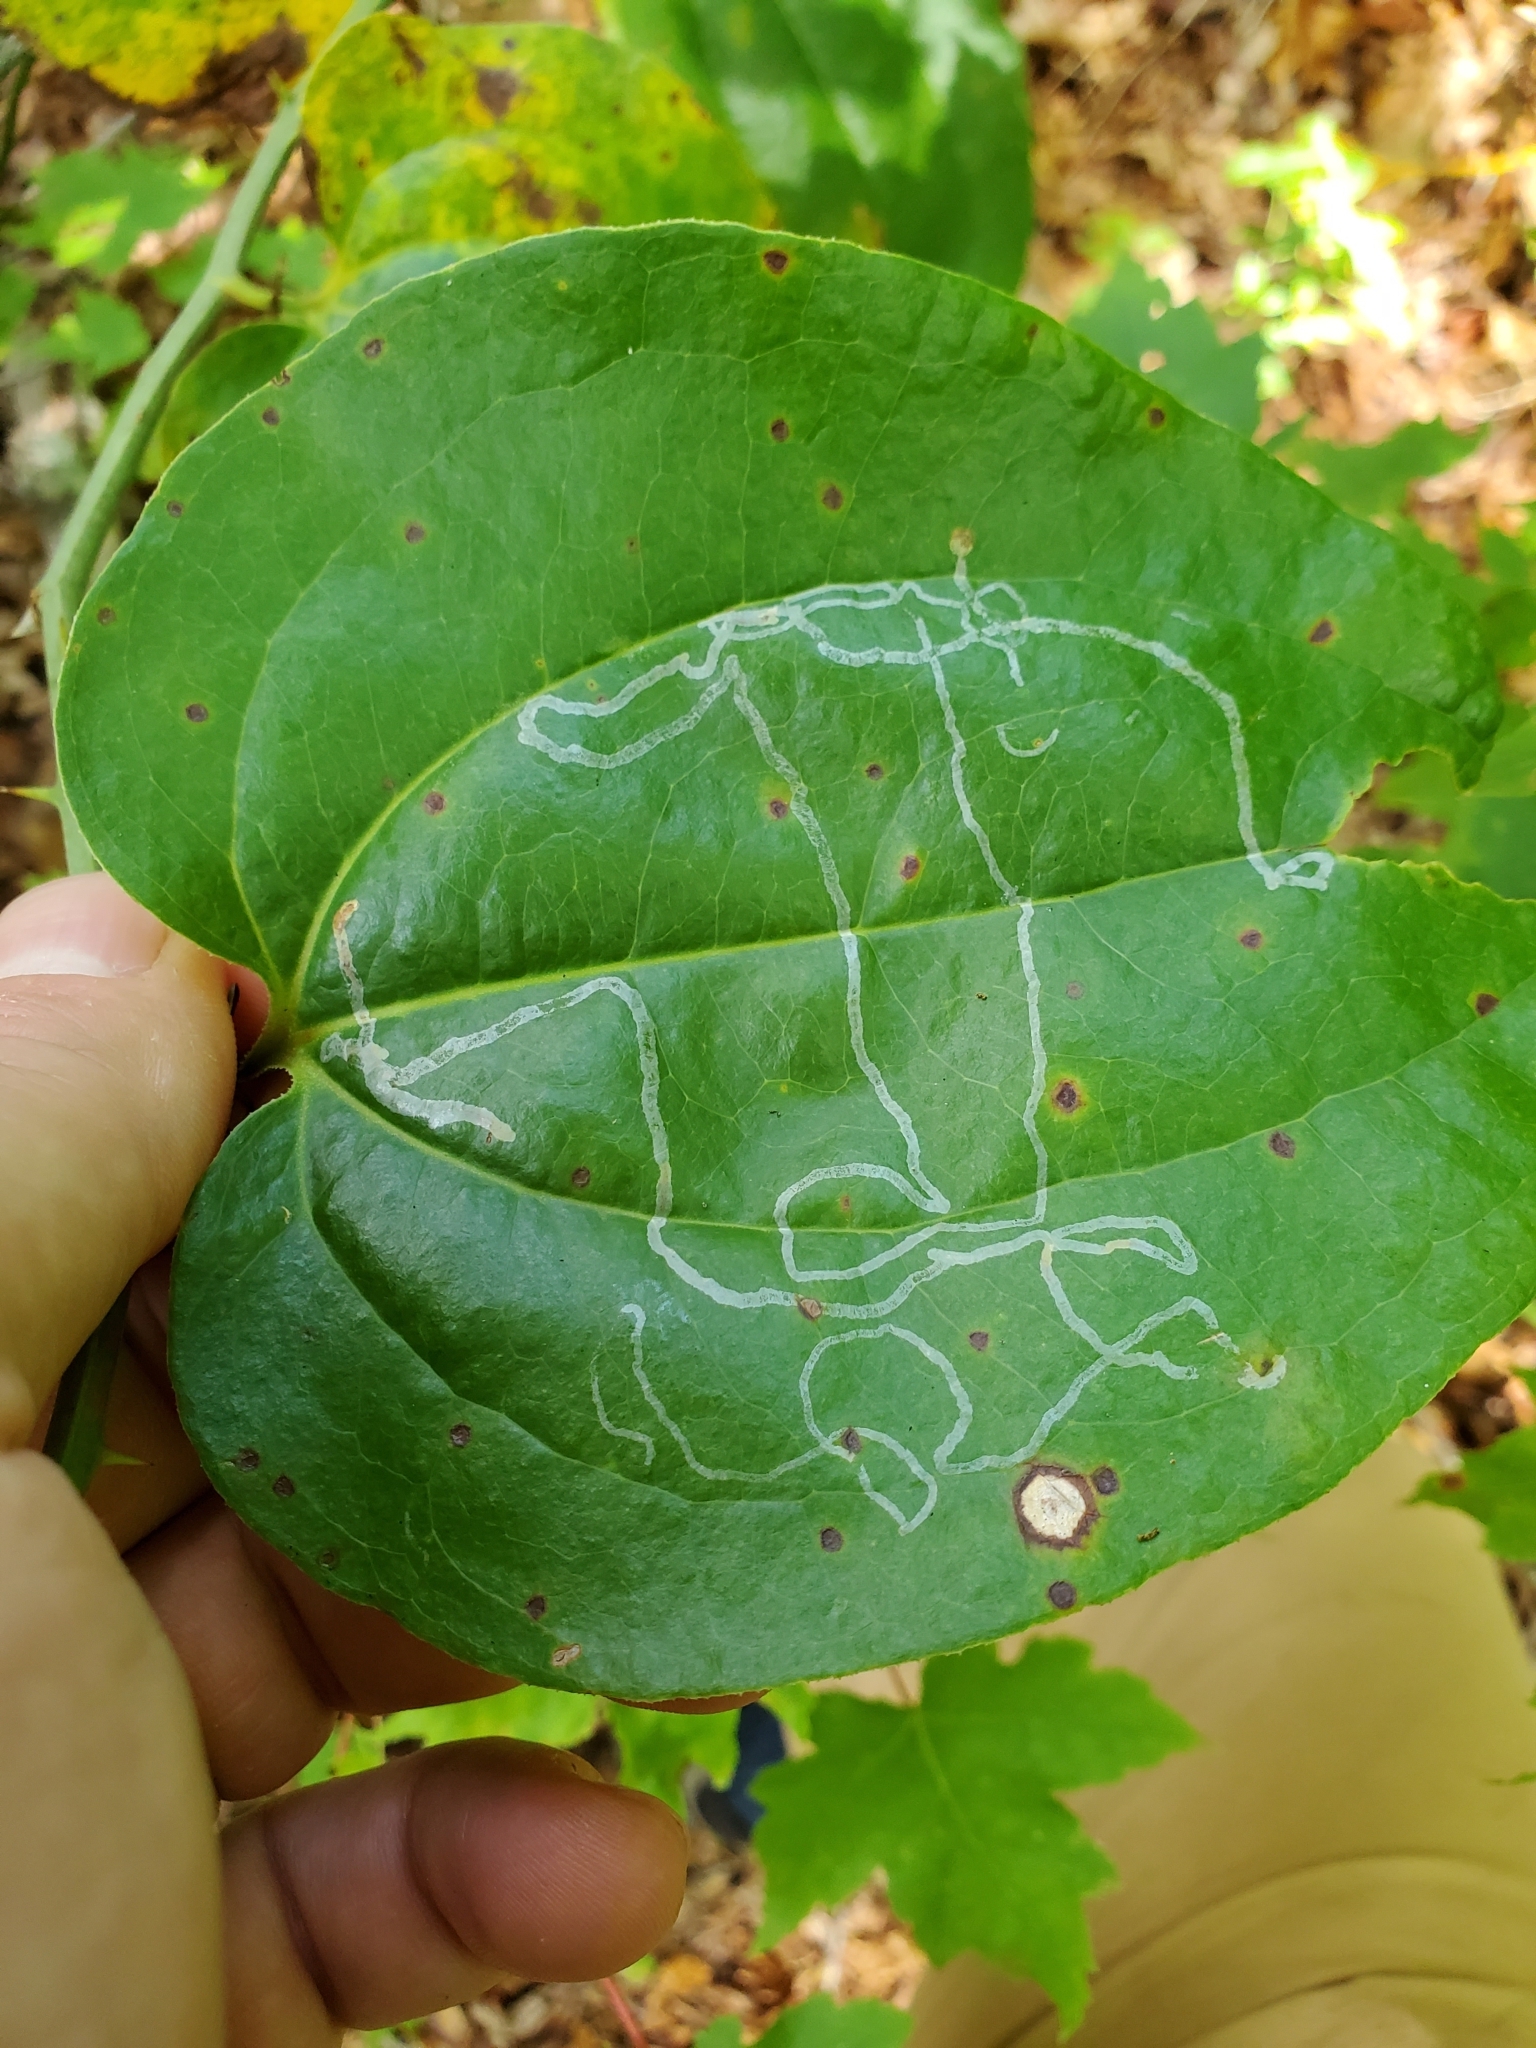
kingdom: Animalia
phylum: Arthropoda
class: Insecta
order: Lepidoptera
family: Gracillariidae
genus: Marmara
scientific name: Marmara smilacisella
